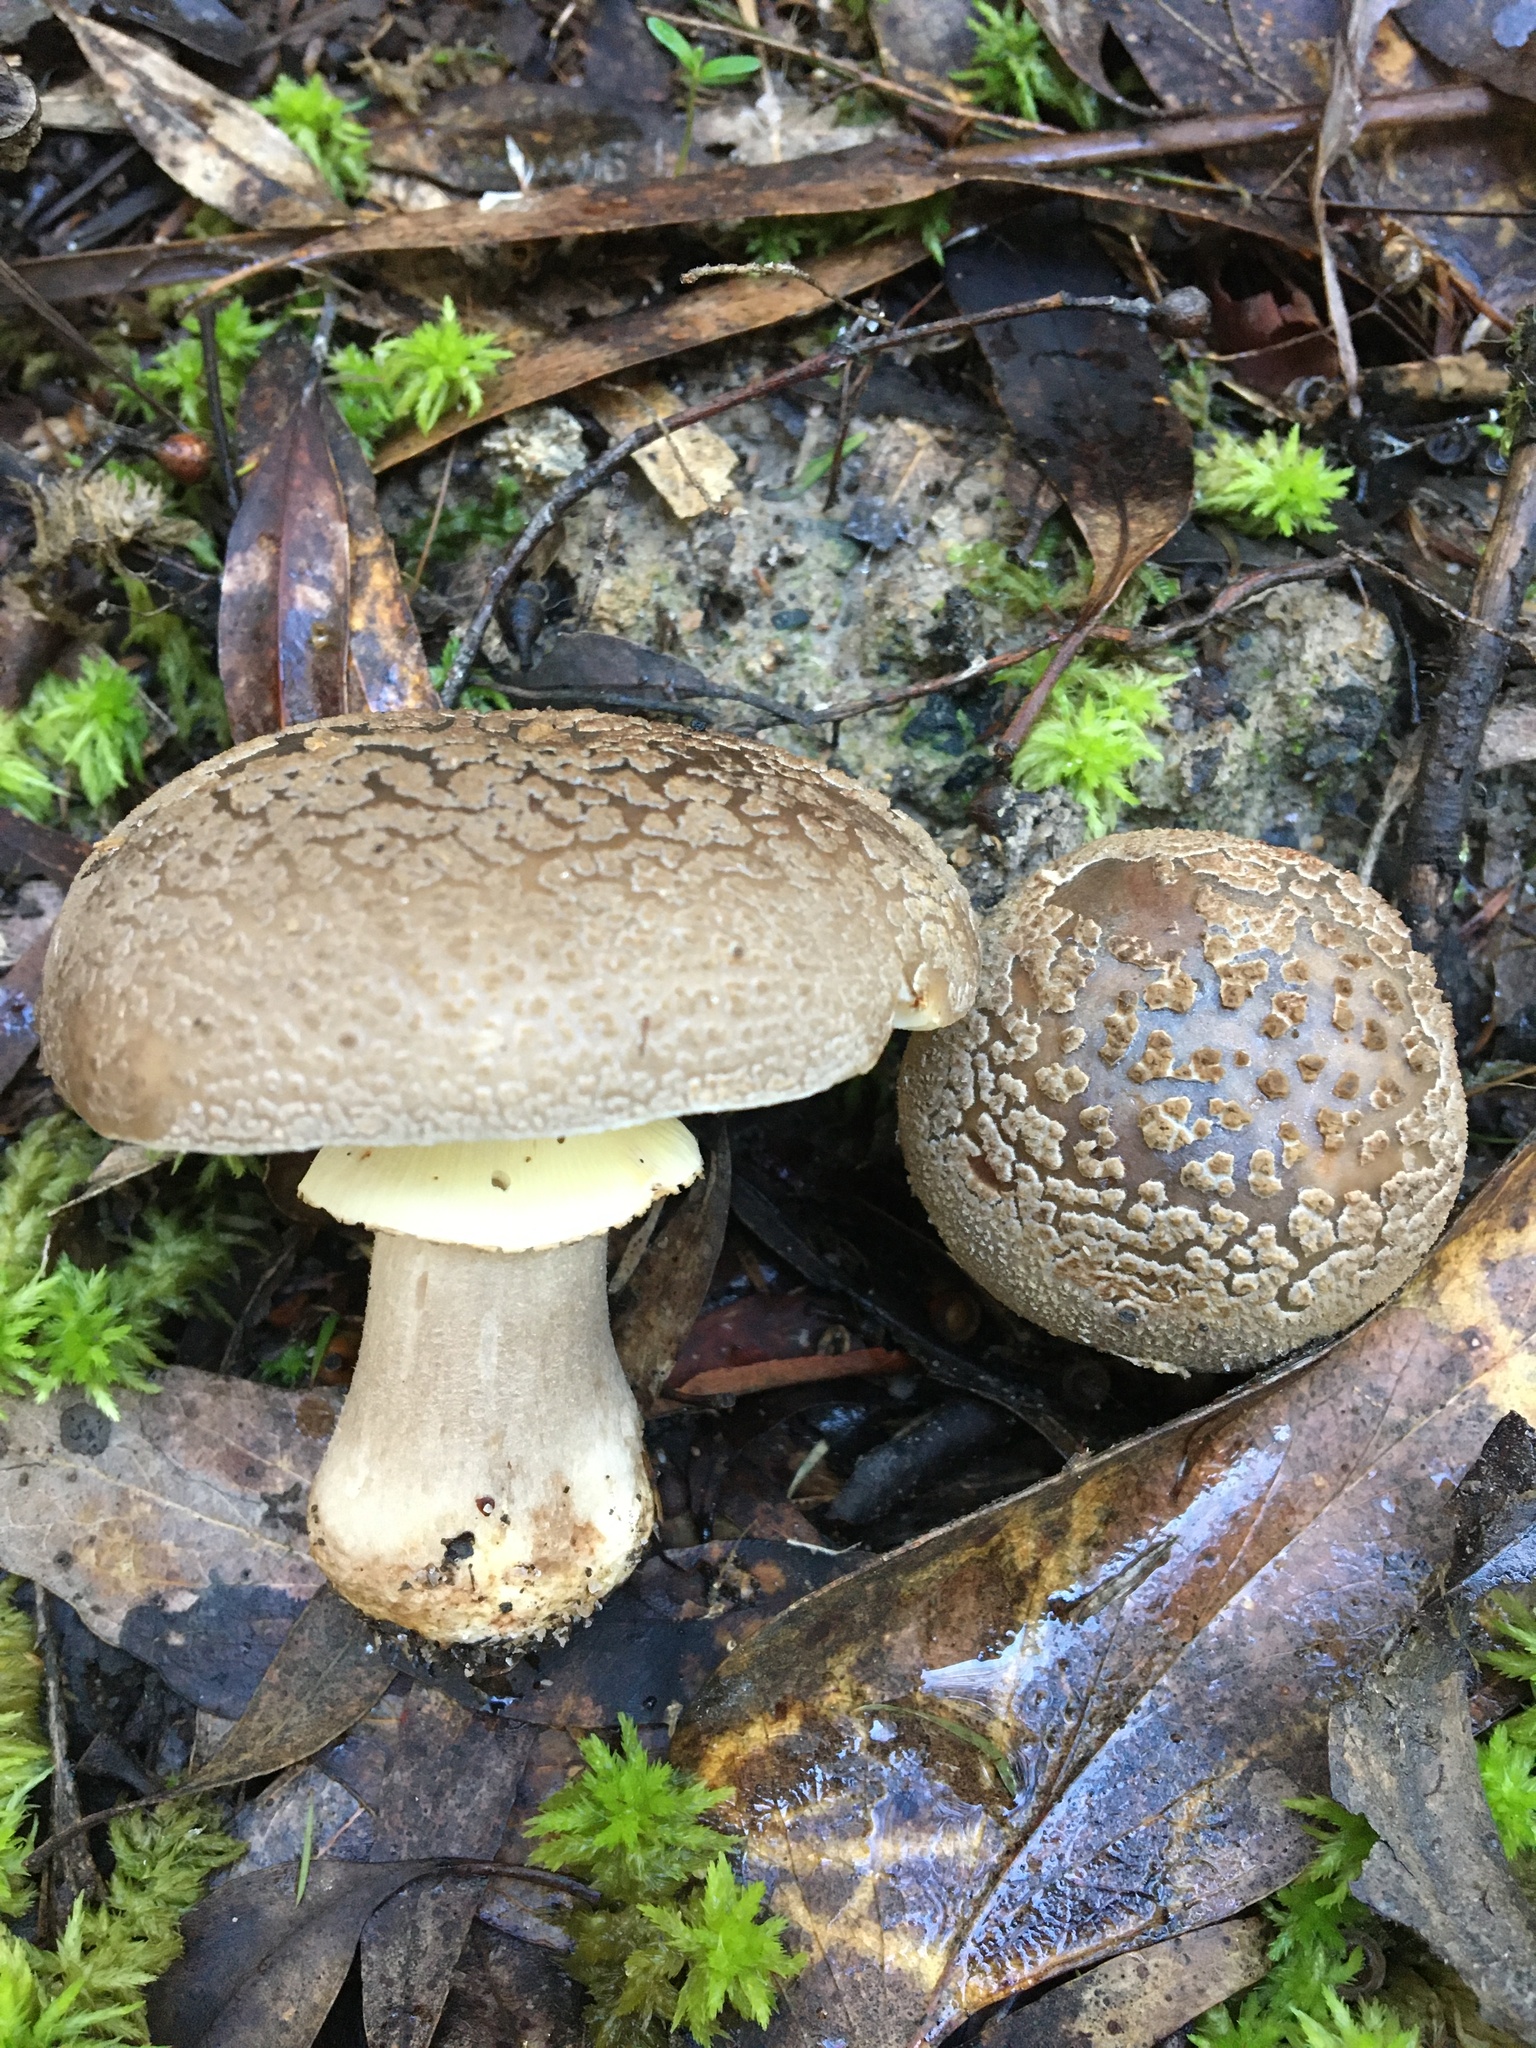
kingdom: Fungi
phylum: Basidiomycota
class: Agaricomycetes
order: Agaricales
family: Amanitaceae
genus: Amanita
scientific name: Amanita luteolovelata
